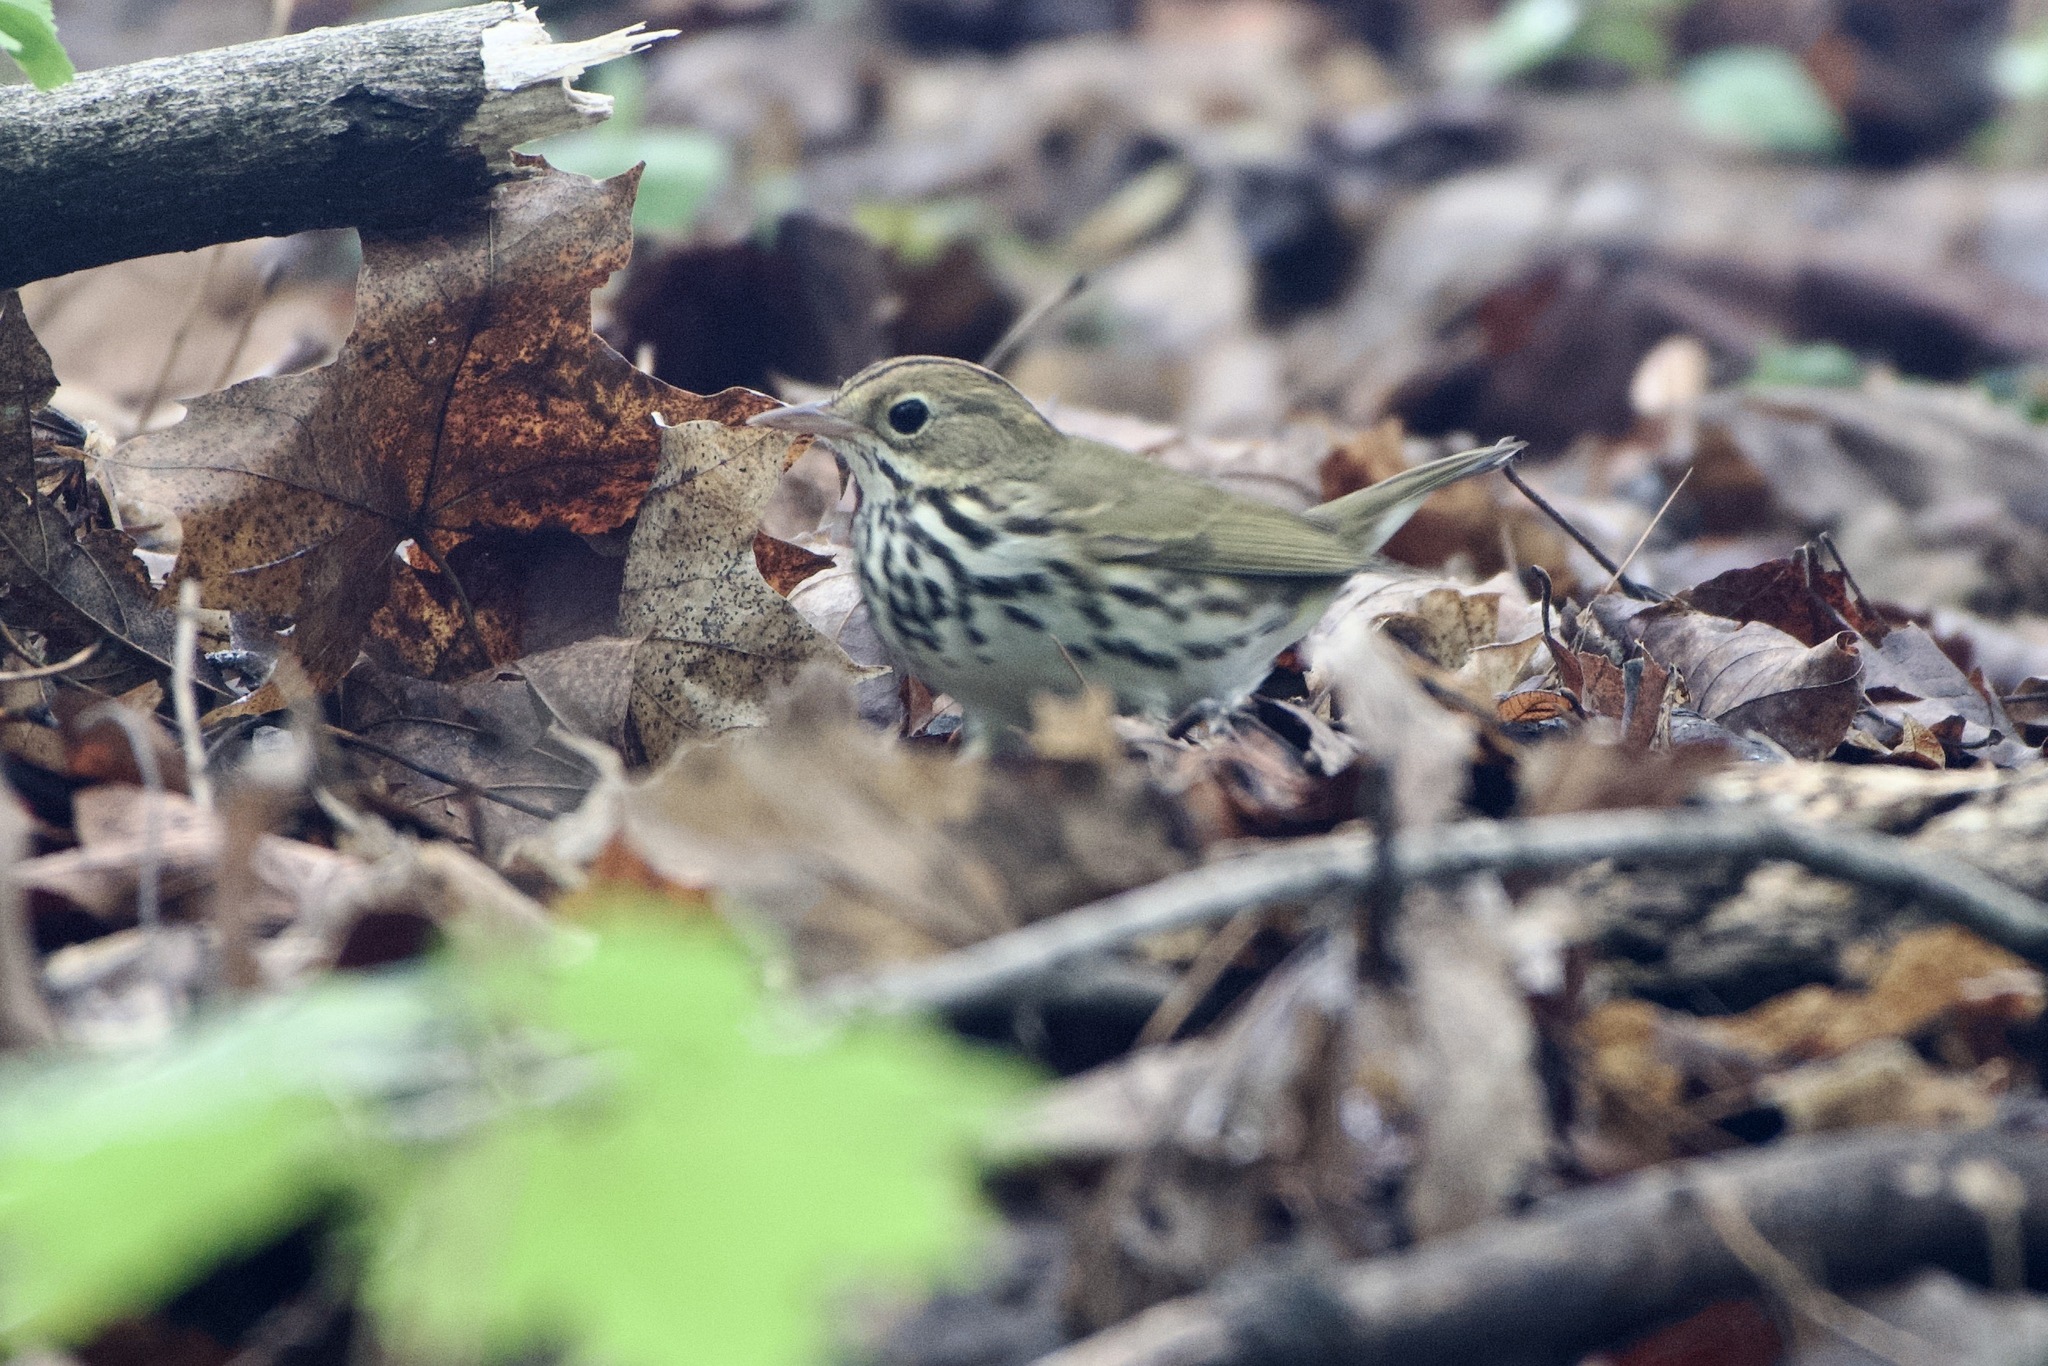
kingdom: Animalia
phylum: Chordata
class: Aves
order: Passeriformes
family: Parulidae
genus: Seiurus
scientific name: Seiurus aurocapilla
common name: Ovenbird
